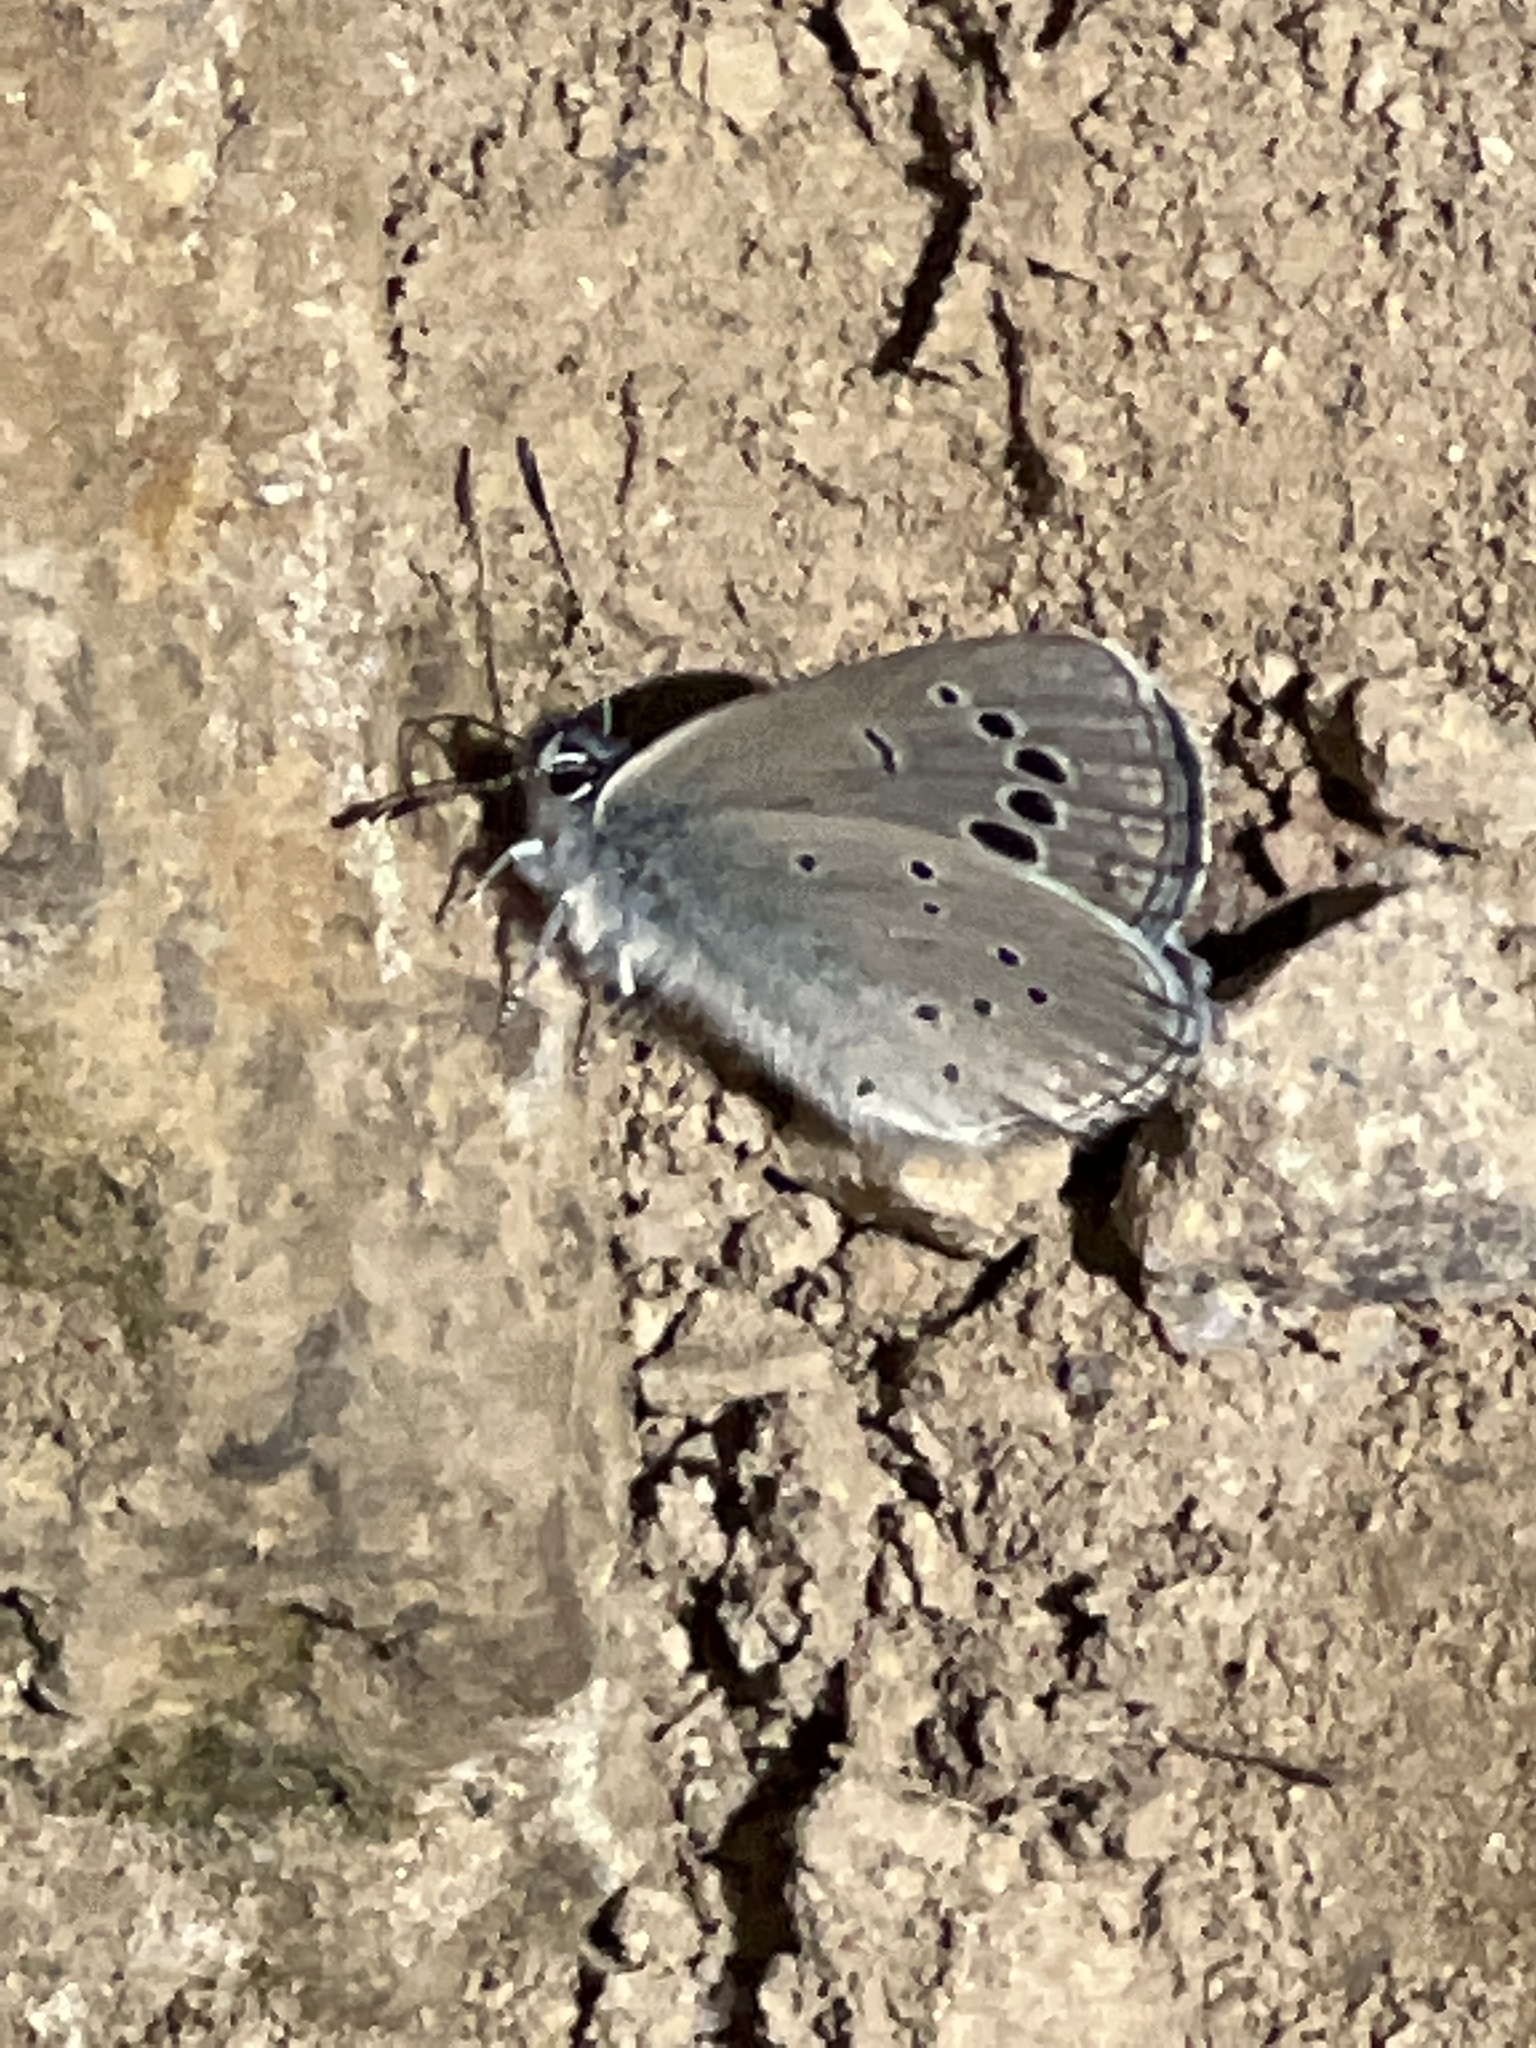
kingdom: Animalia
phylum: Arthropoda
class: Insecta
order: Lepidoptera
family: Lycaenidae
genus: Glaucopsyche
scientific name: Glaucopsyche melanops
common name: Black-eyed blue
